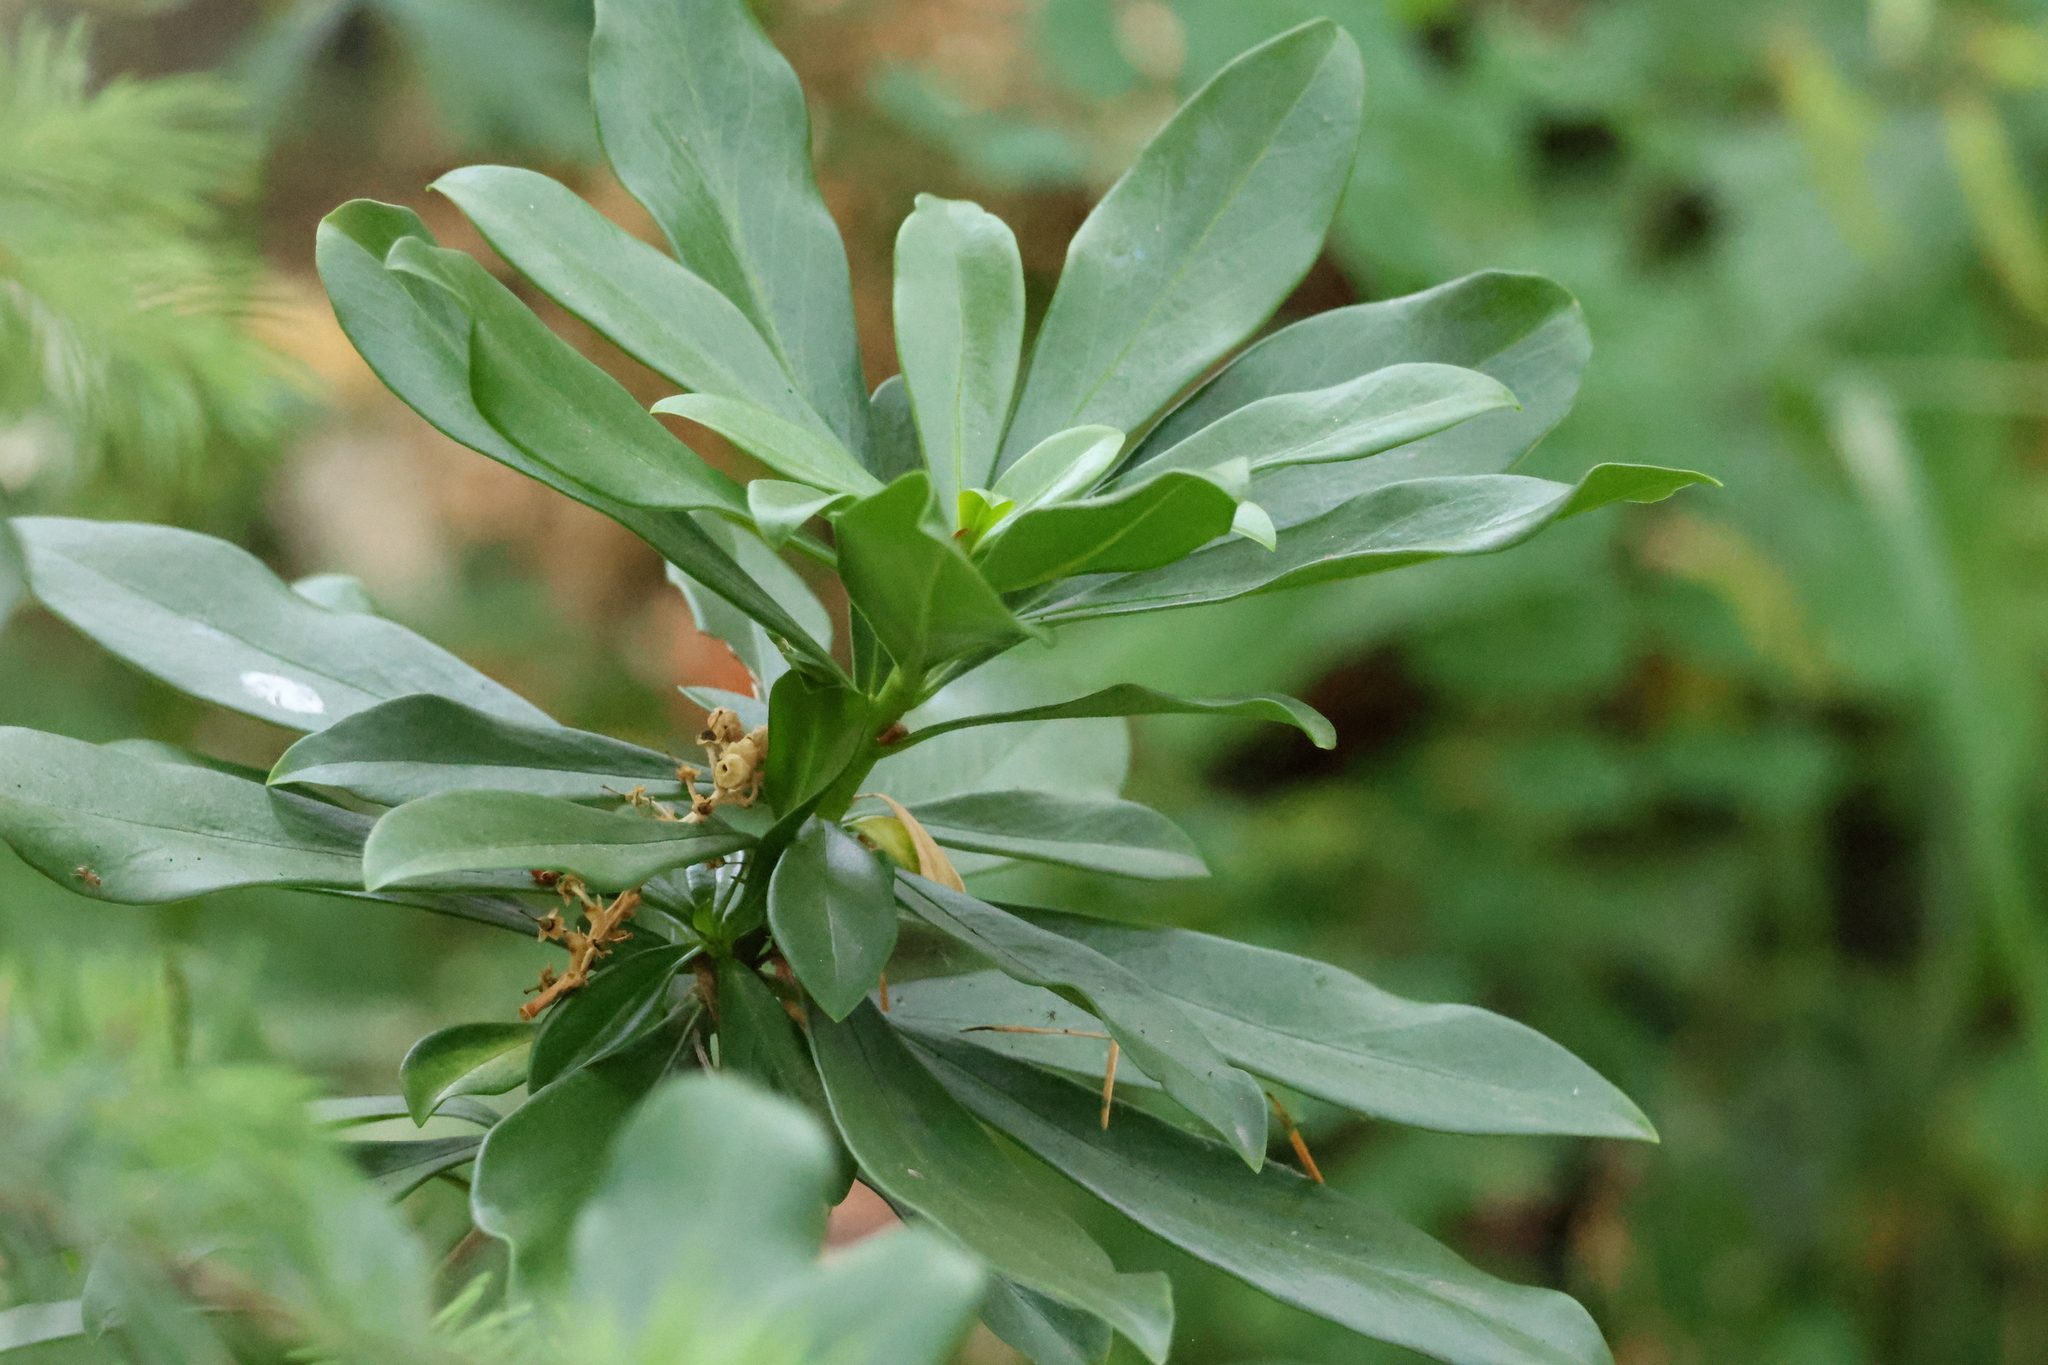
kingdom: Plantae
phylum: Tracheophyta
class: Magnoliopsida
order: Malvales
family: Thymelaeaceae
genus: Daphne
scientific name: Daphne laureola
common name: Spurge-laurel
